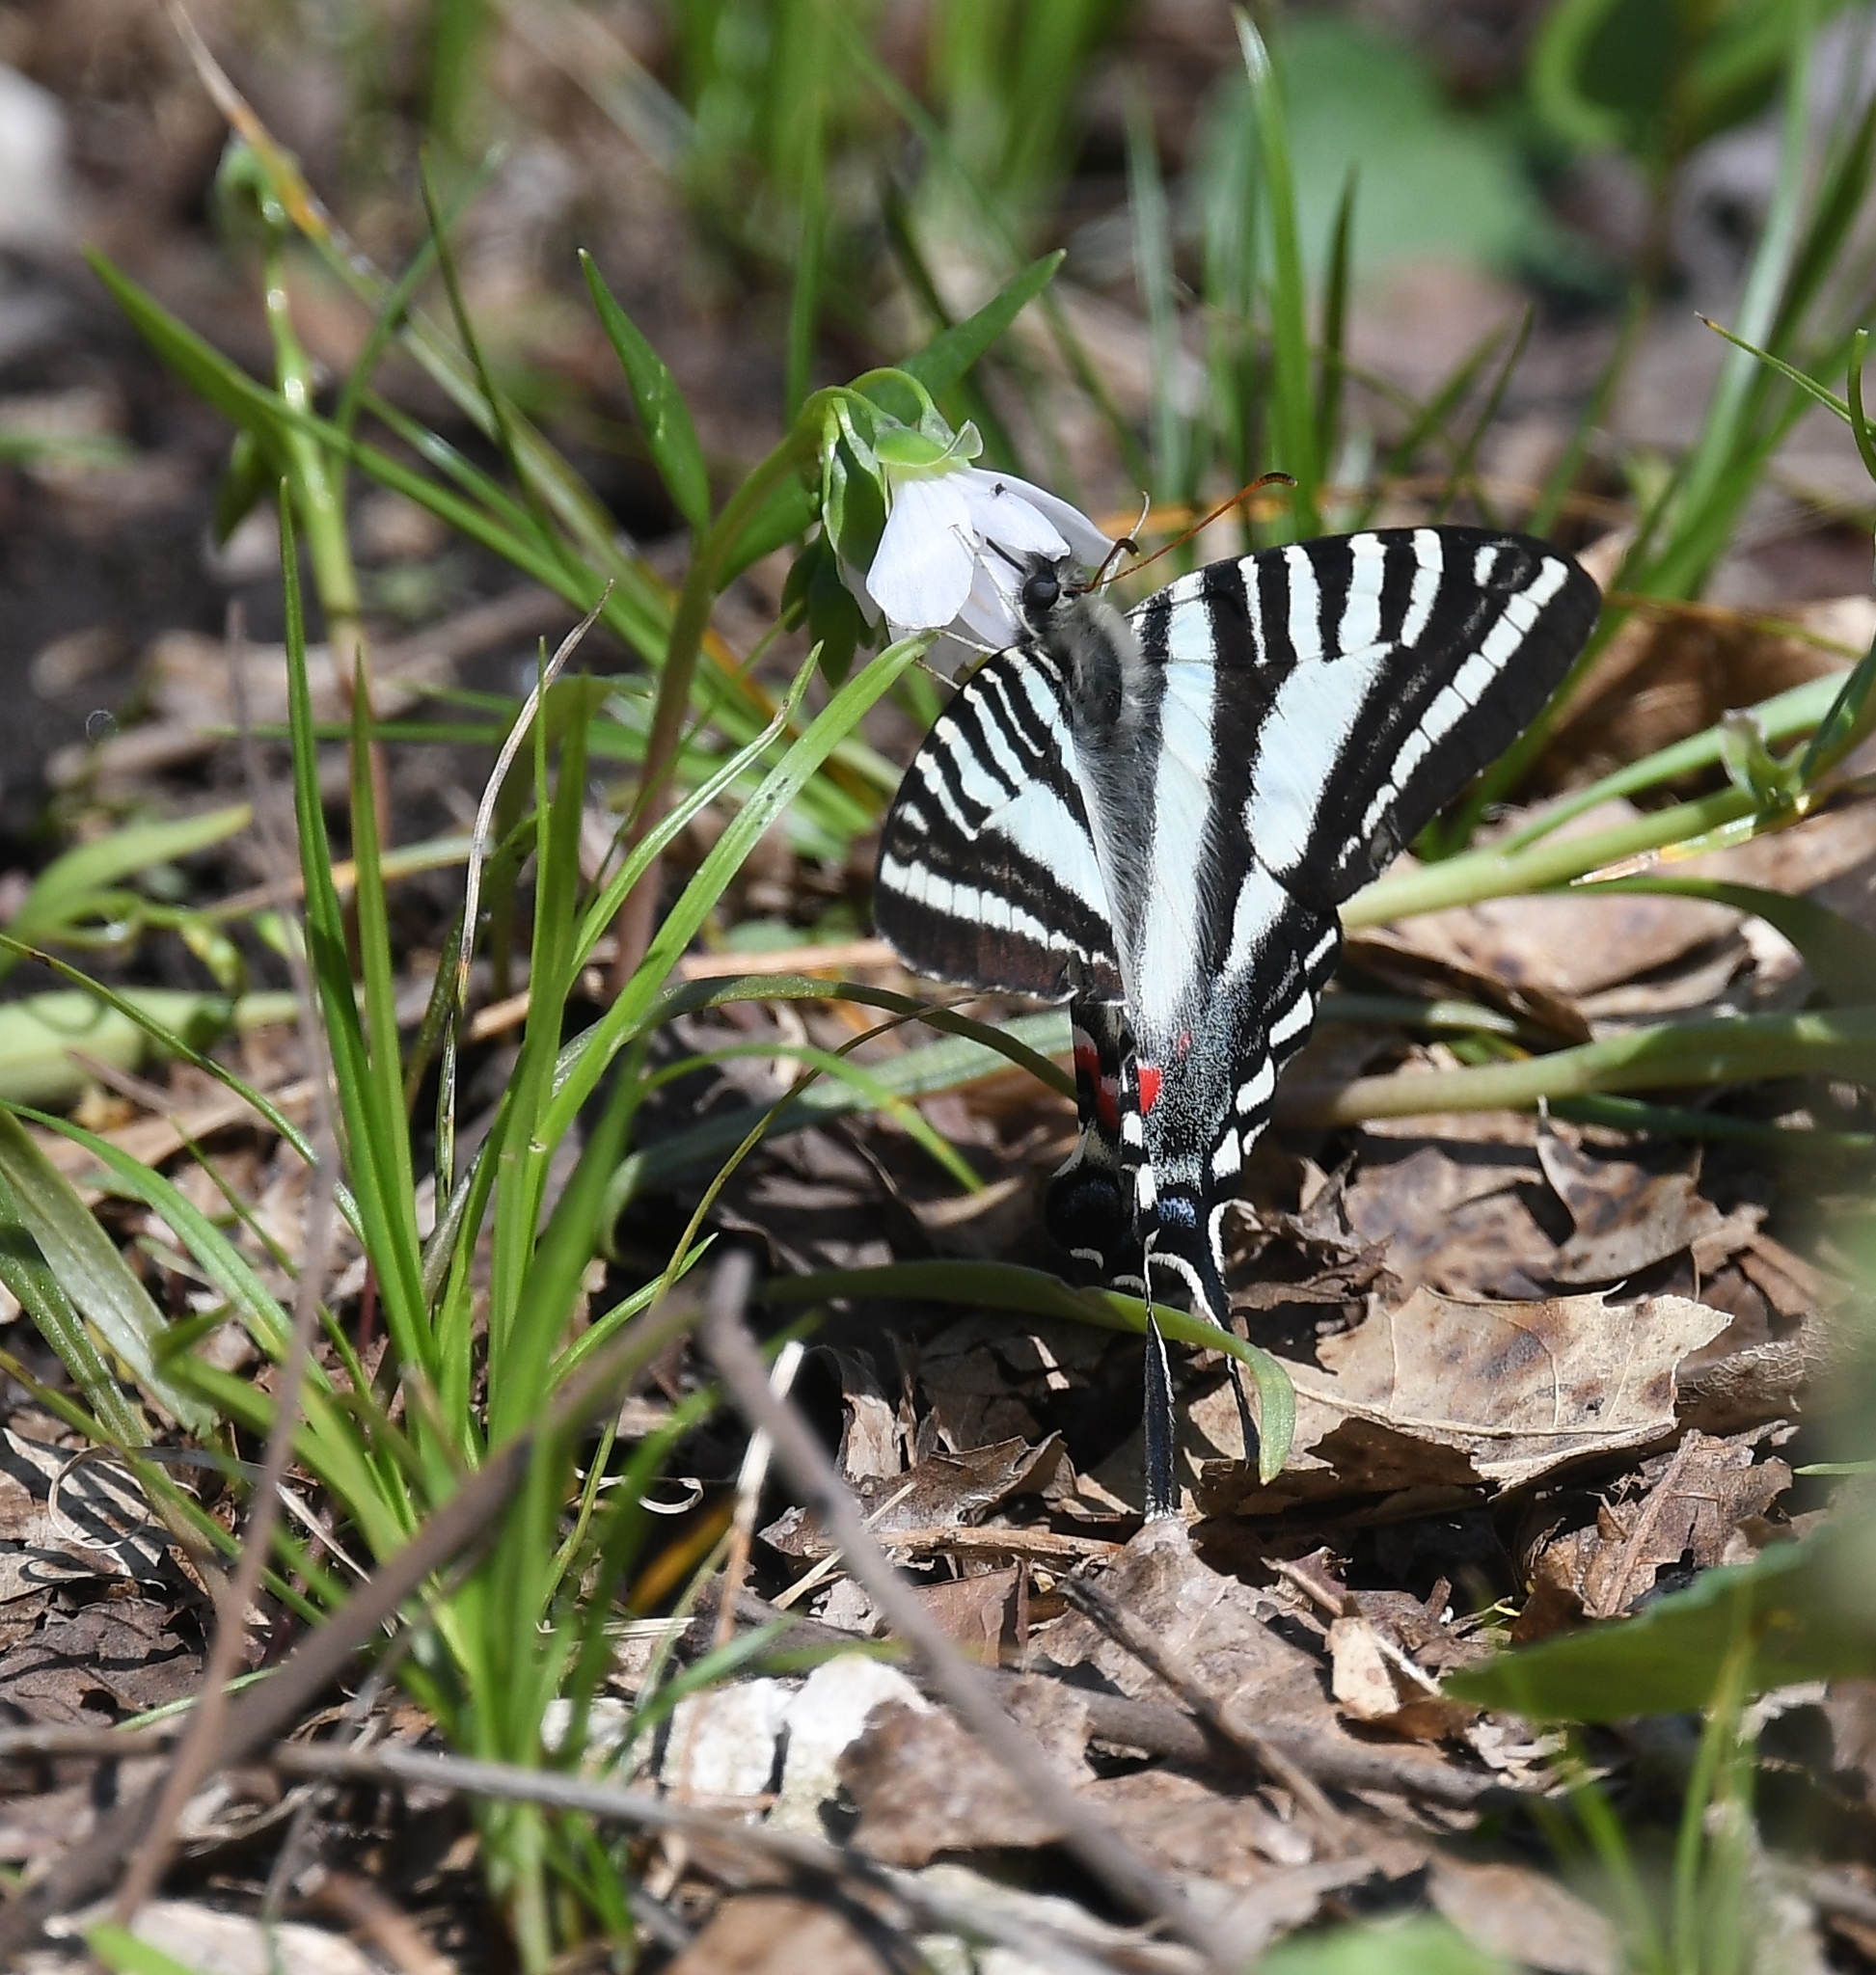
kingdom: Animalia
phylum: Arthropoda
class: Insecta
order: Lepidoptera
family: Papilionidae
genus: Protographium
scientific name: Protographium marcellus
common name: Zebra swallowtail
